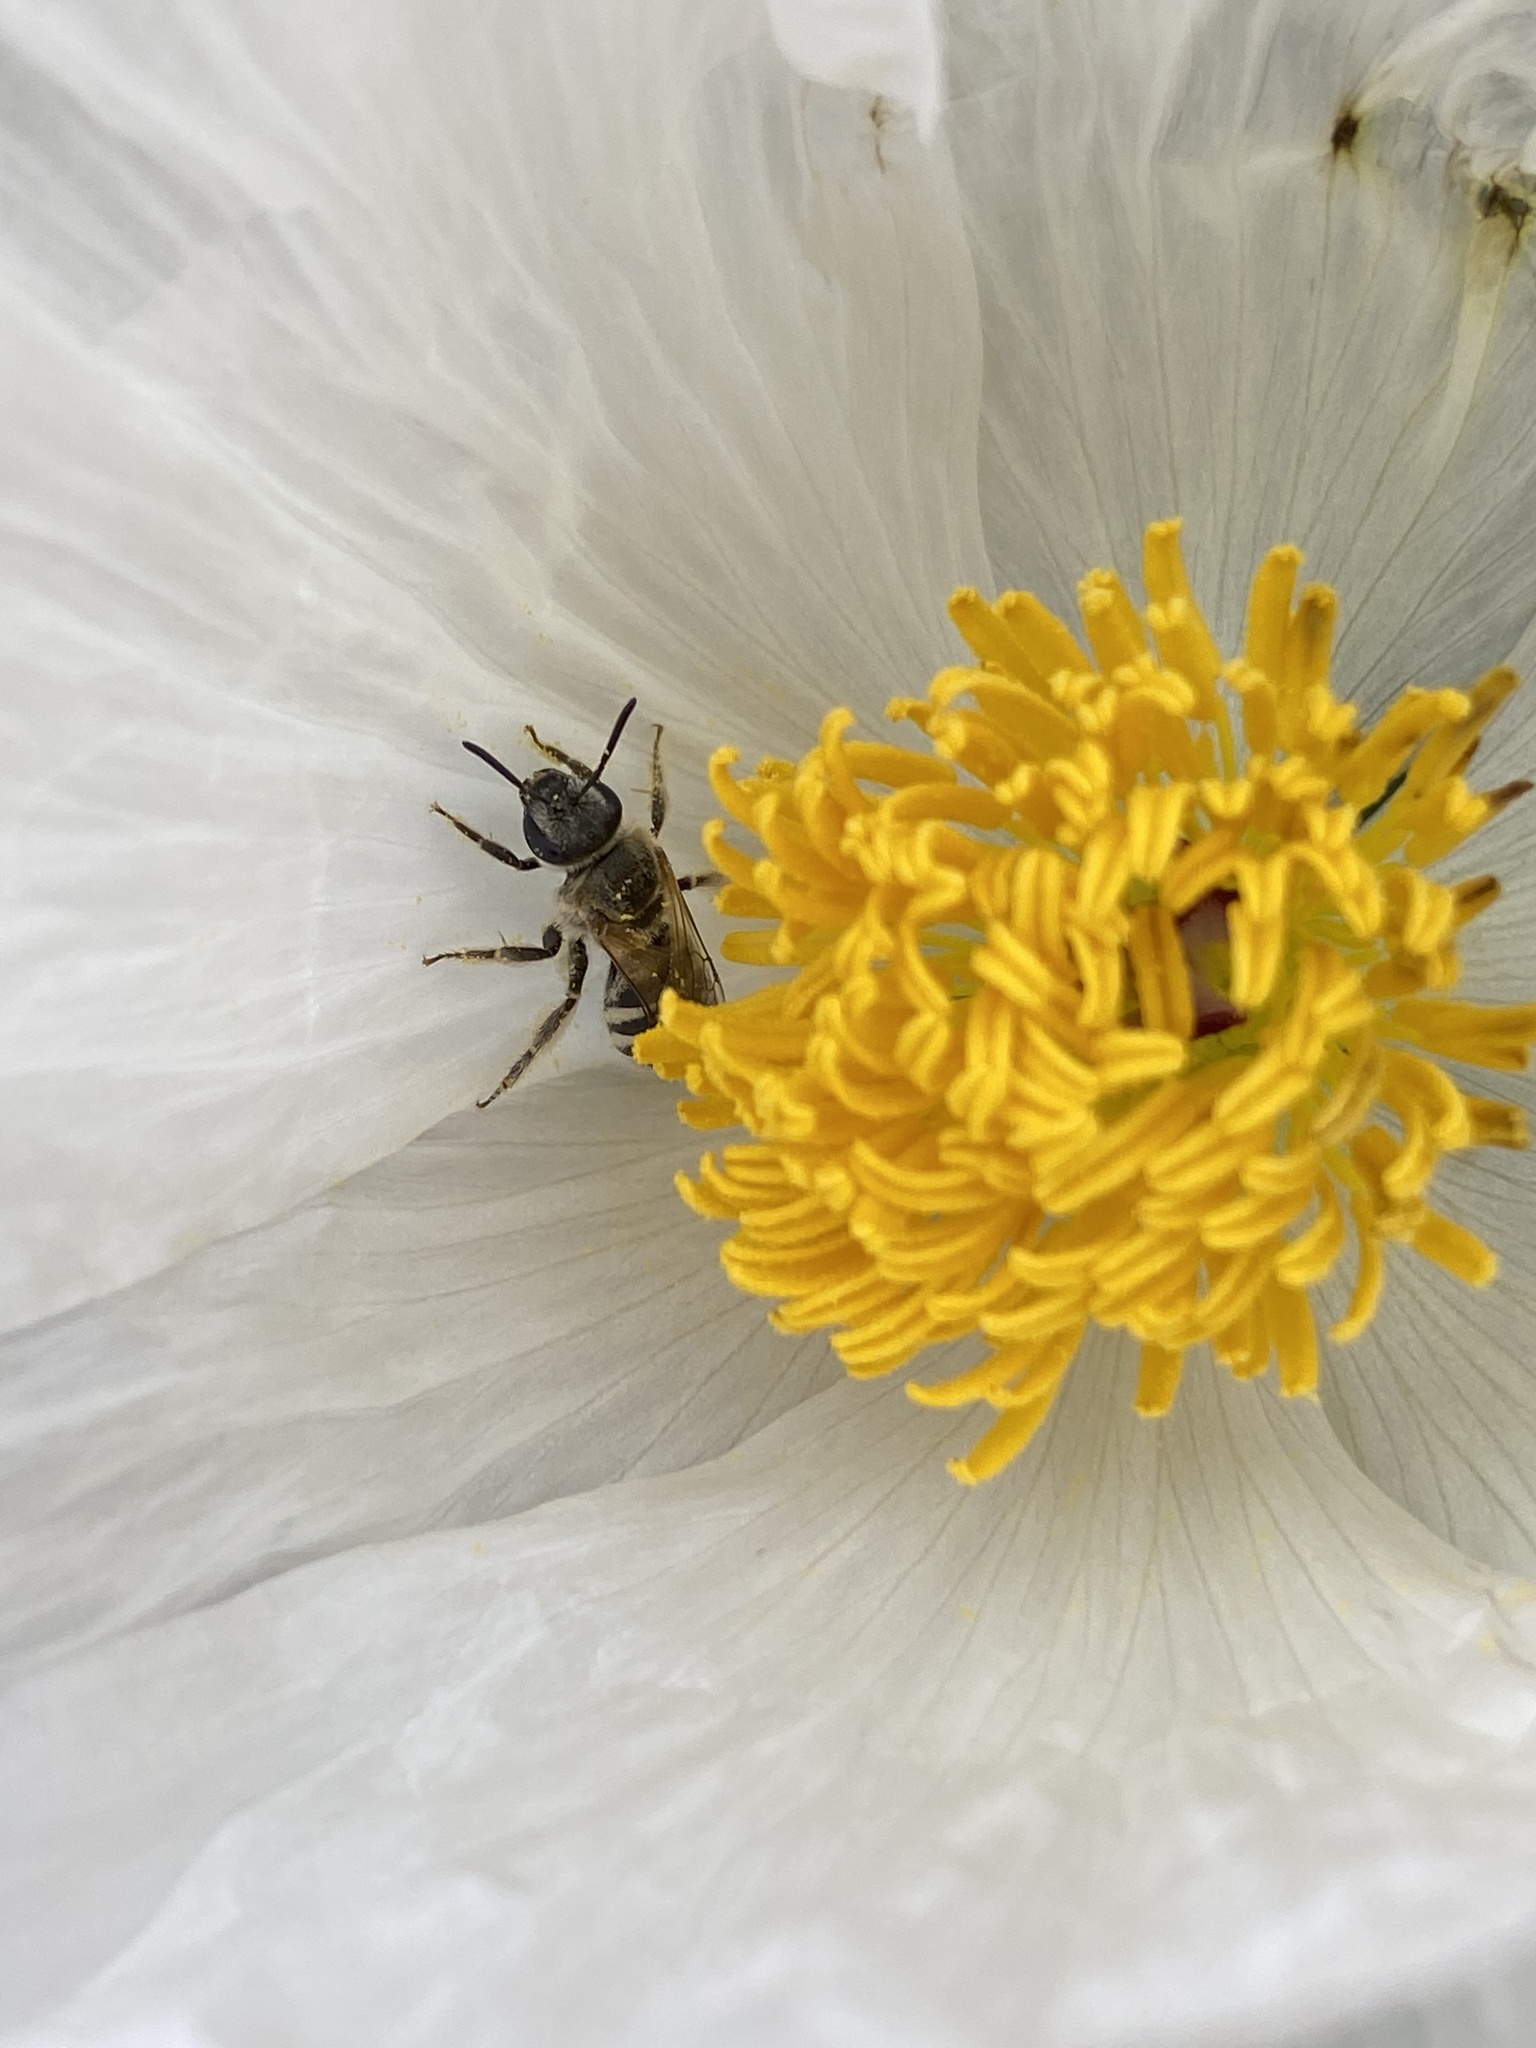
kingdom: Animalia
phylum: Arthropoda
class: Insecta
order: Hymenoptera
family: Halictidae
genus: Lasioglossum
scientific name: Lasioglossum sisymbrii
